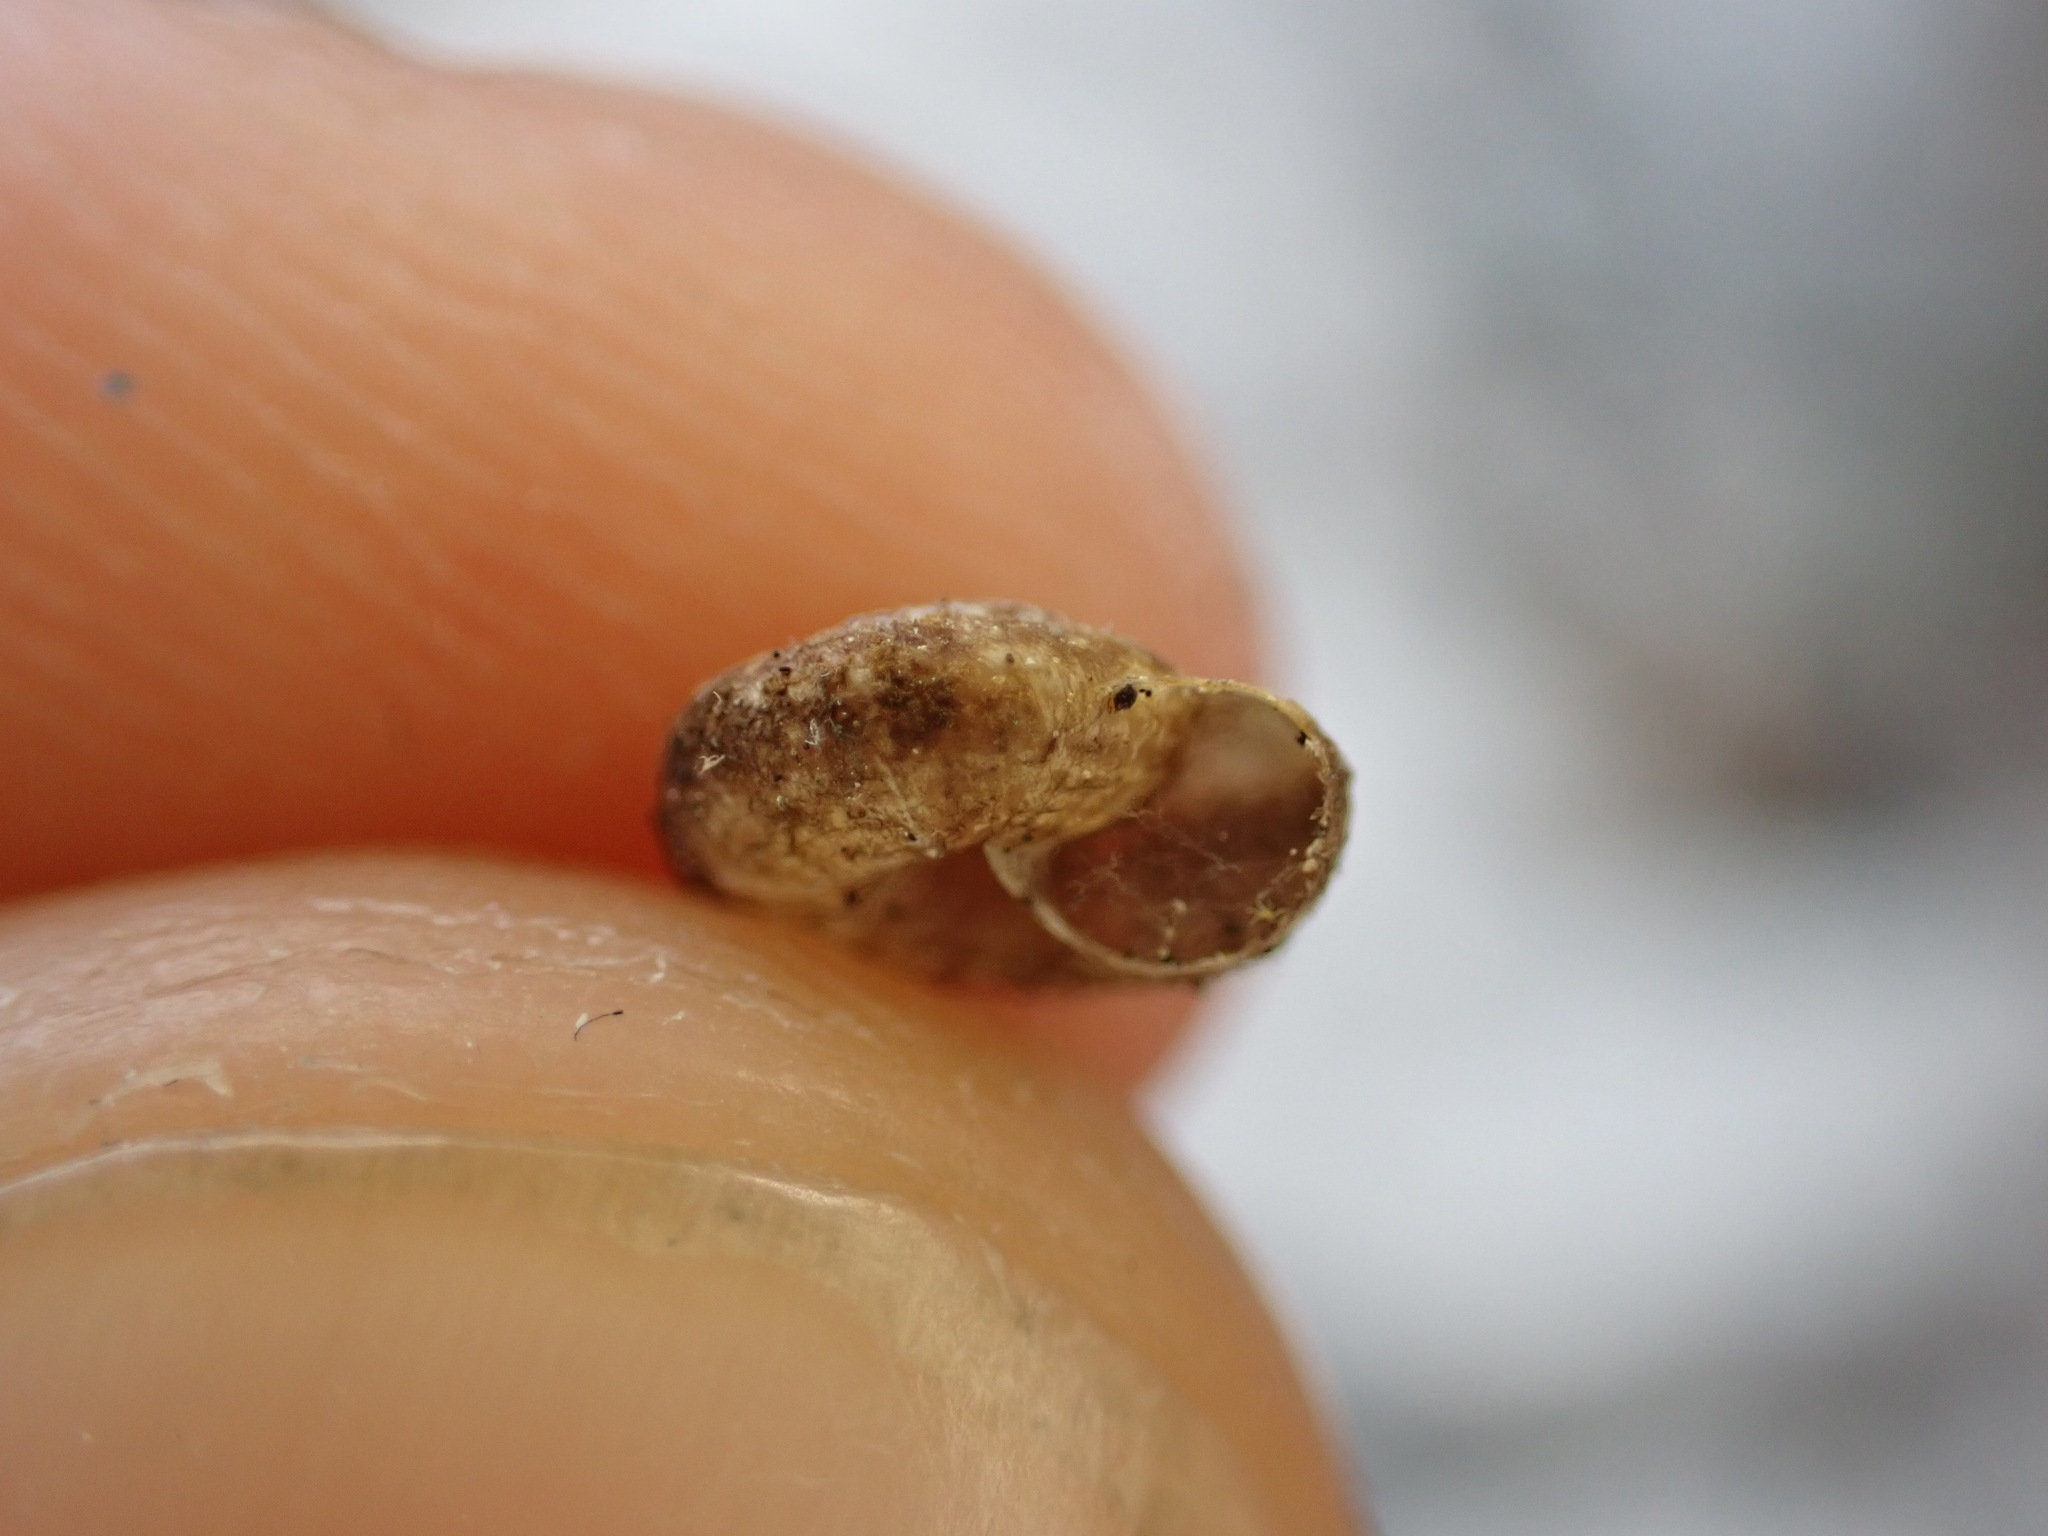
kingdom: Animalia
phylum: Mollusca
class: Gastropoda
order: Stylommatophora
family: Geomitridae
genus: Microxeromagna
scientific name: Microxeromagna lowei
